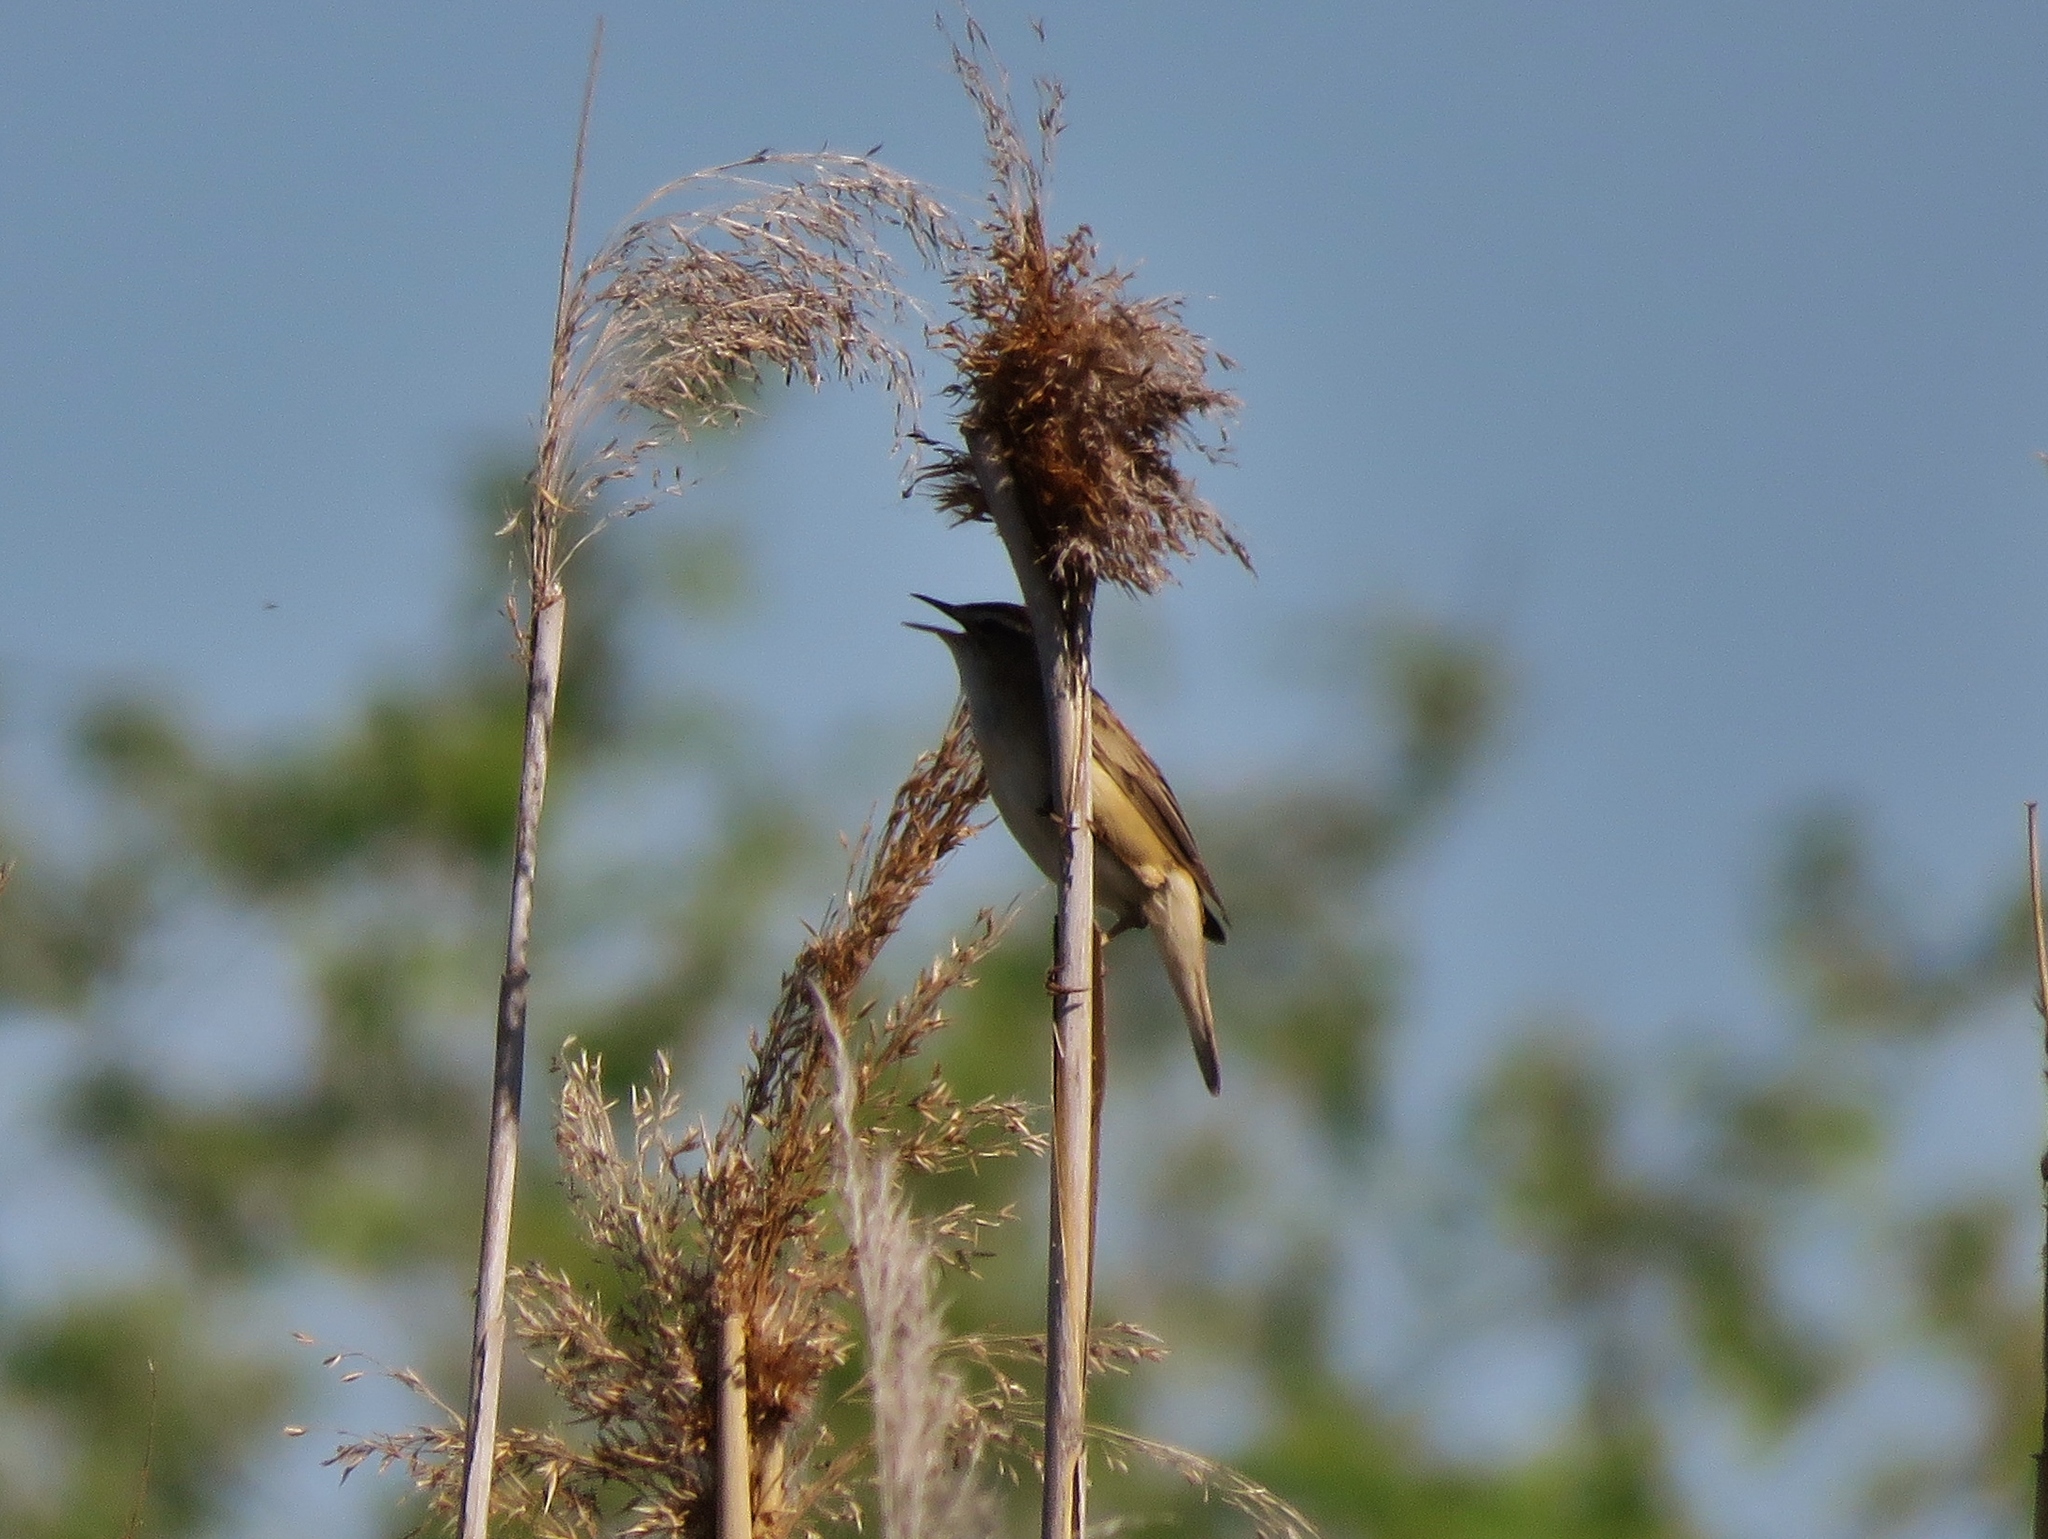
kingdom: Animalia
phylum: Chordata
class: Aves
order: Passeriformes
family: Acrocephalidae
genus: Acrocephalus
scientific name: Acrocephalus schoenobaenus
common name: Sedge warbler
